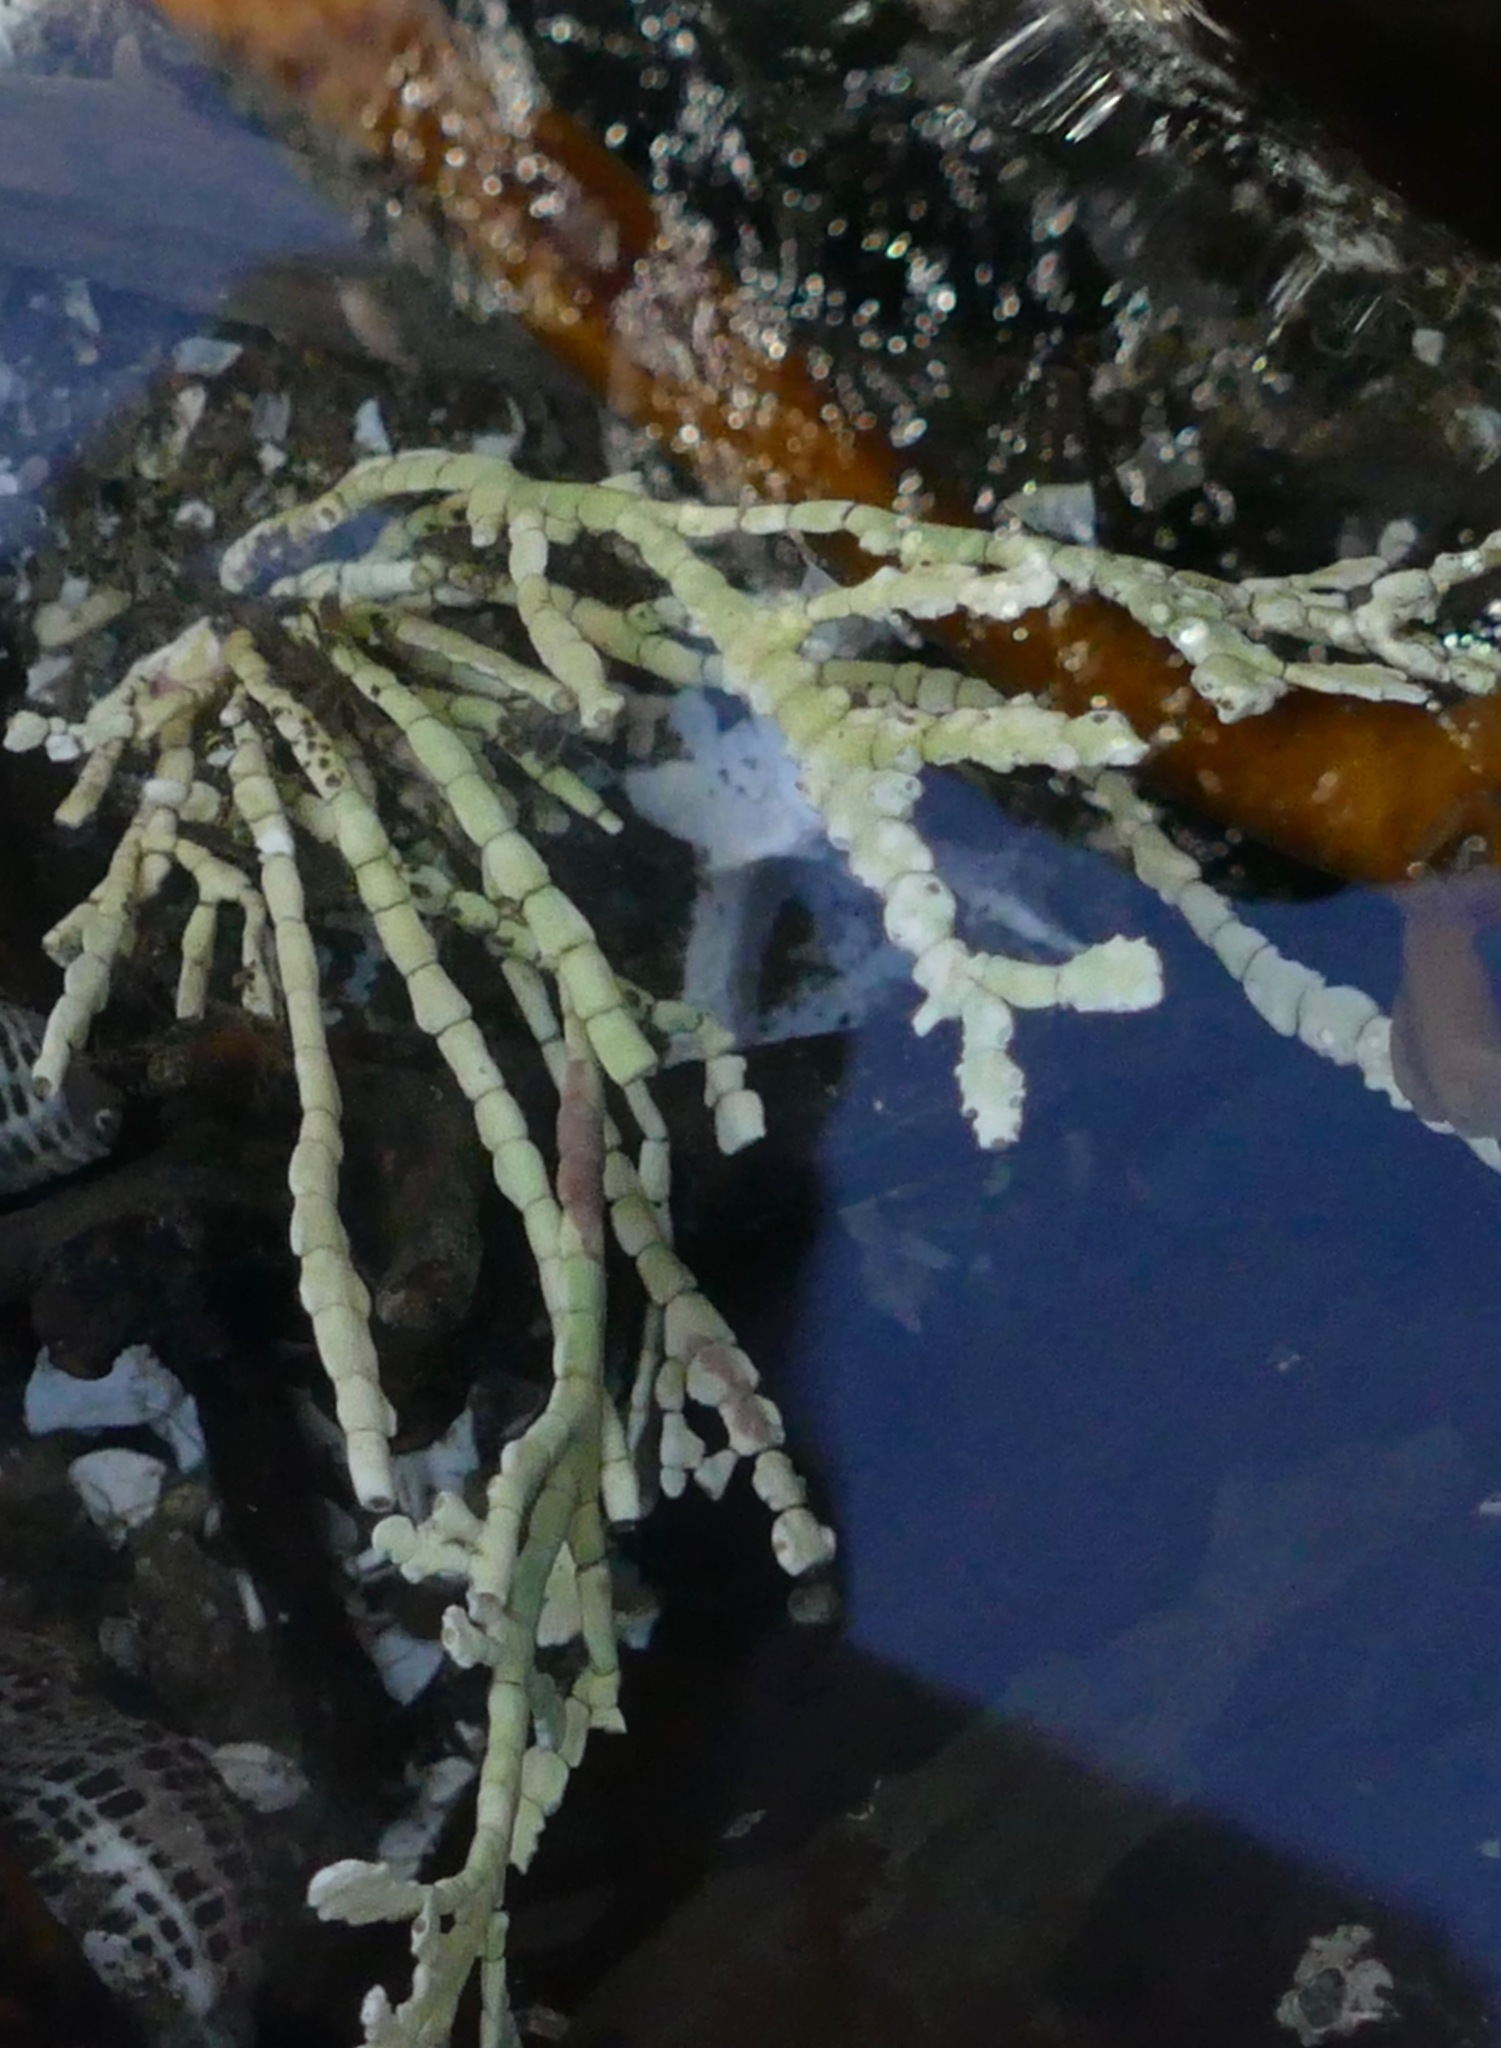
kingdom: Plantae
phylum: Rhodophyta
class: Florideophyceae
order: Corallinales
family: Corallinaceae
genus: Calliarthron
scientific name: Calliarthron tuberculosum
